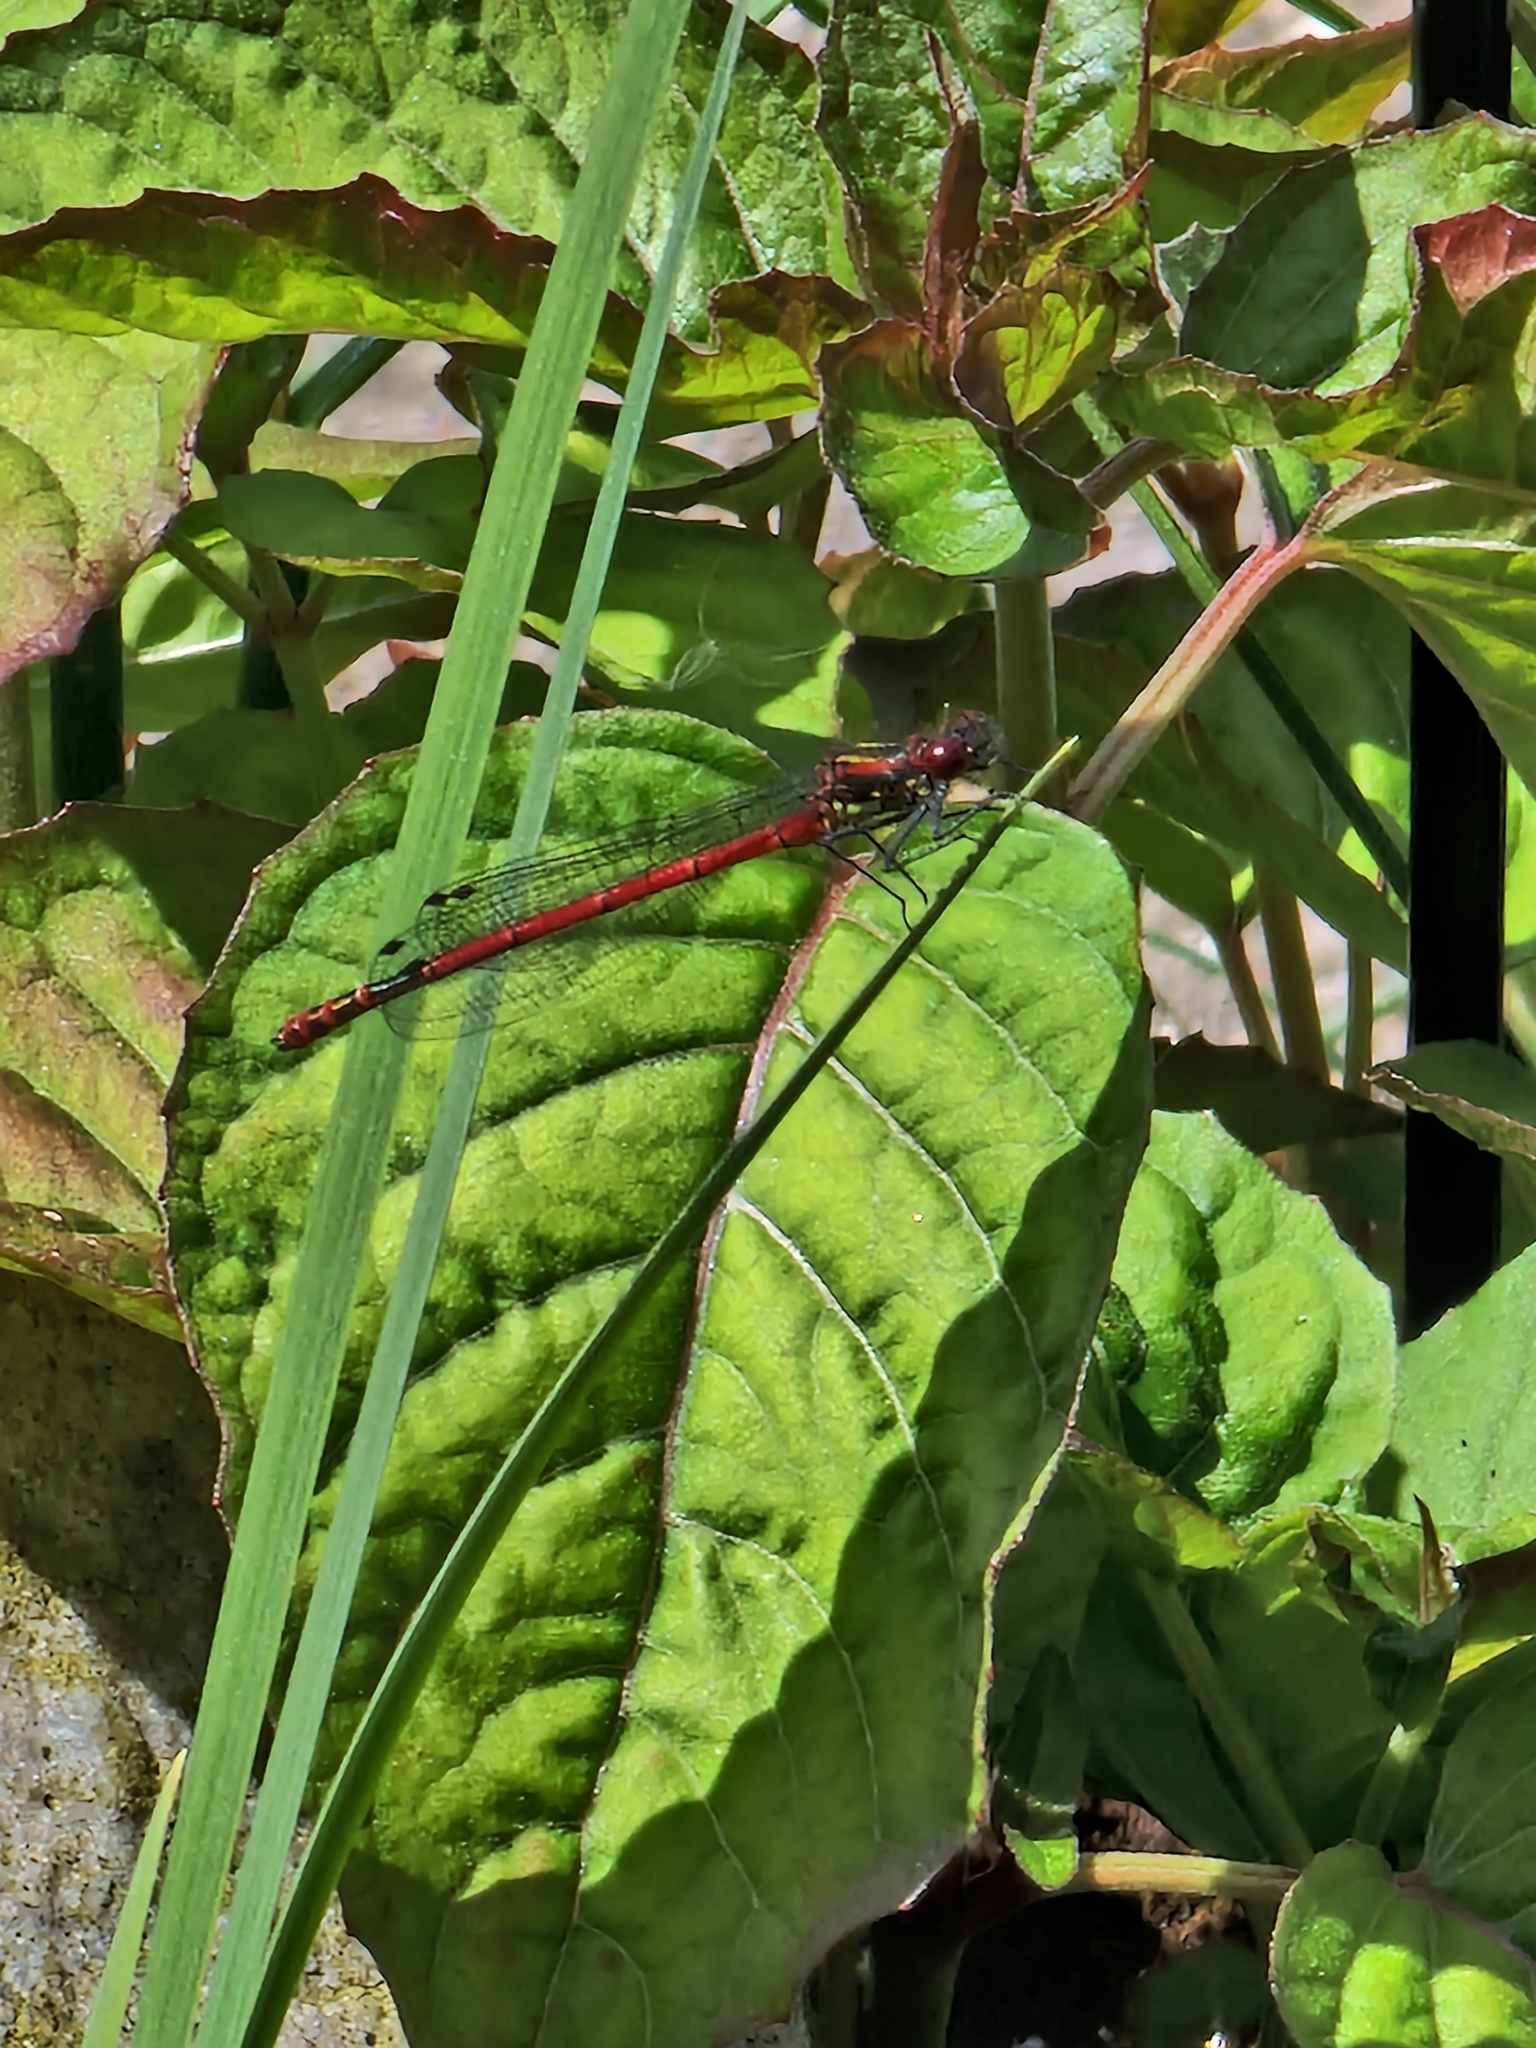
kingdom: Animalia
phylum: Arthropoda
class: Insecta
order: Odonata
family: Coenagrionidae
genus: Pyrrhosoma
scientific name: Pyrrhosoma nymphula
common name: Large red damsel
